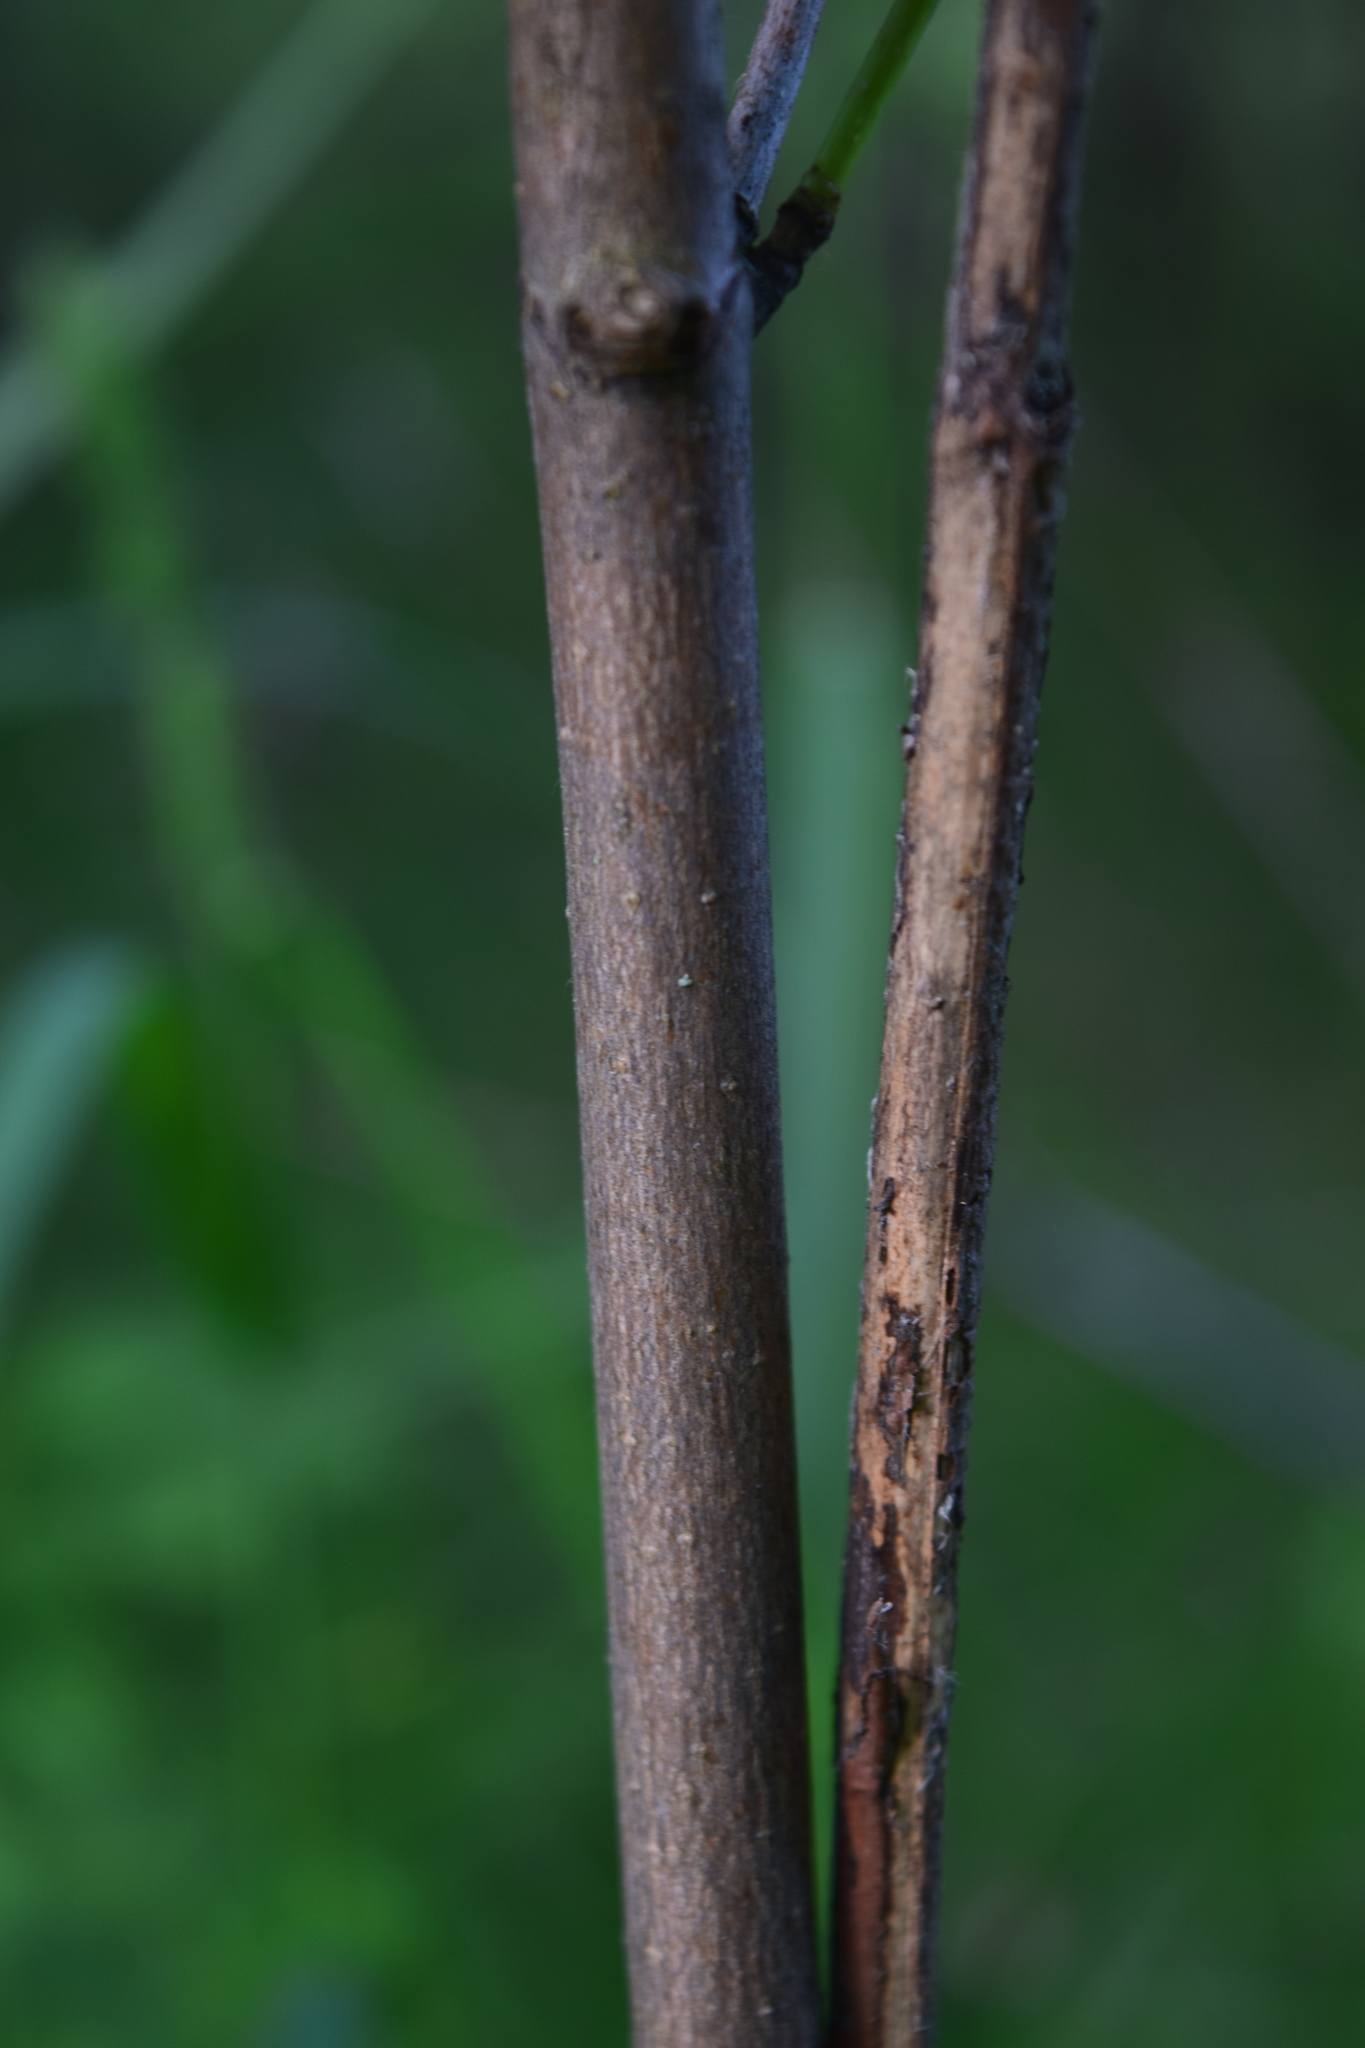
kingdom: Plantae
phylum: Tracheophyta
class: Magnoliopsida
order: Sapindales
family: Sapindaceae
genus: Acer
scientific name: Acer platanoides
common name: Norway maple
